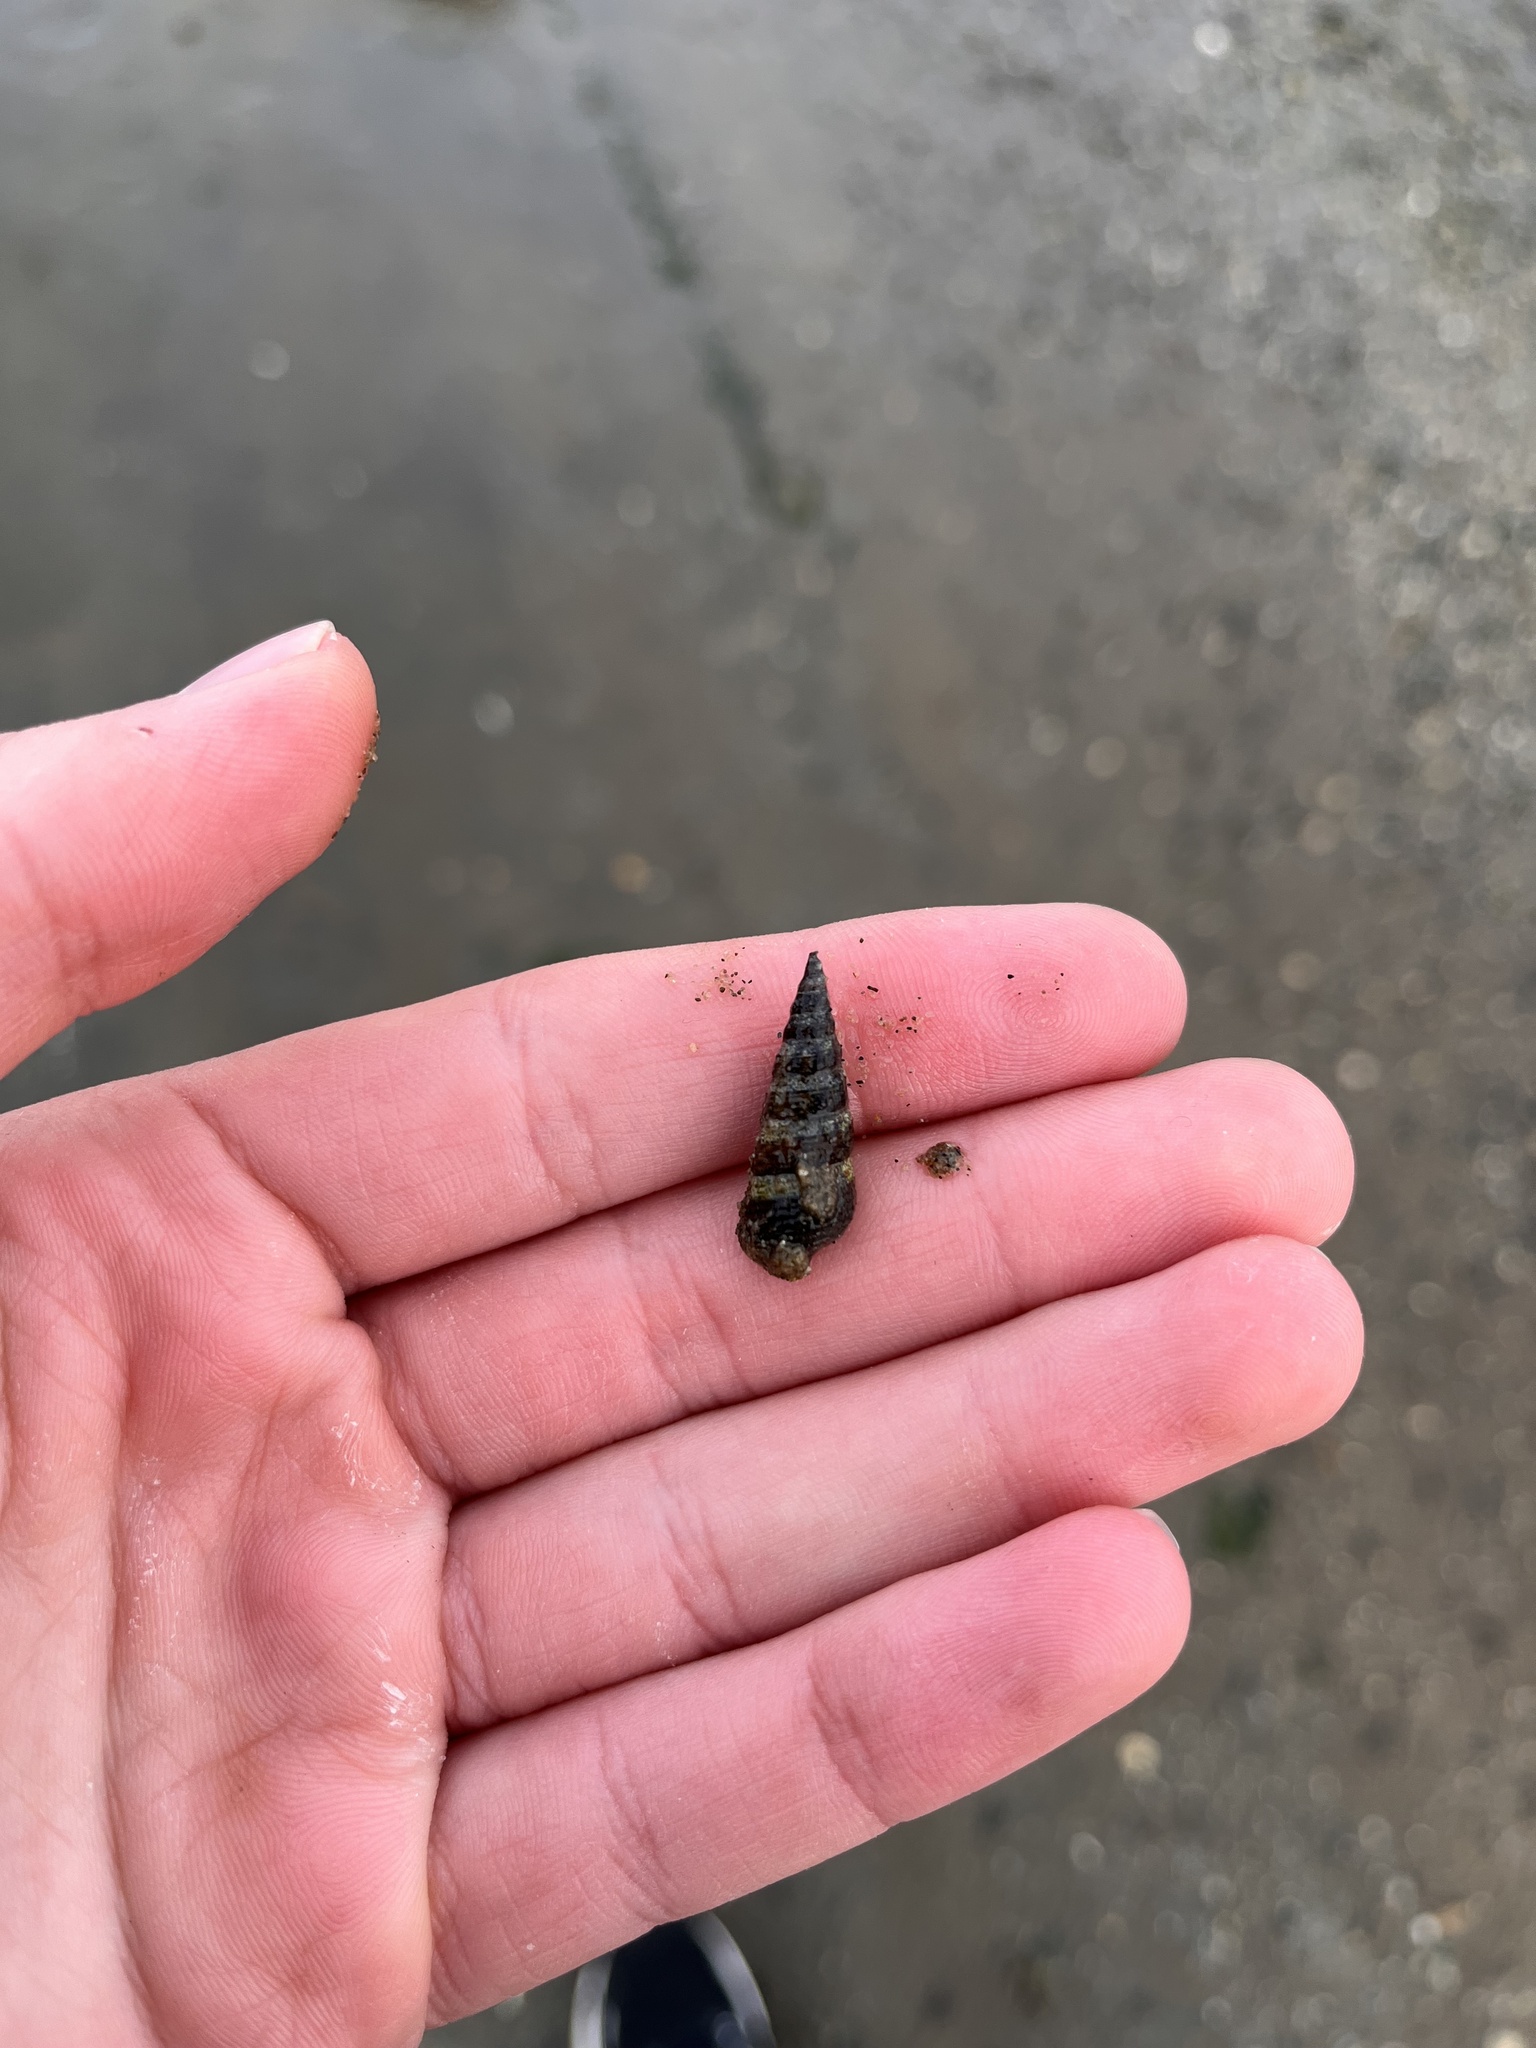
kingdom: Animalia
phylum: Mollusca
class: Gastropoda
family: Batillariidae
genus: Batillaria
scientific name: Batillaria attramentaria
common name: Japanese false cerith
